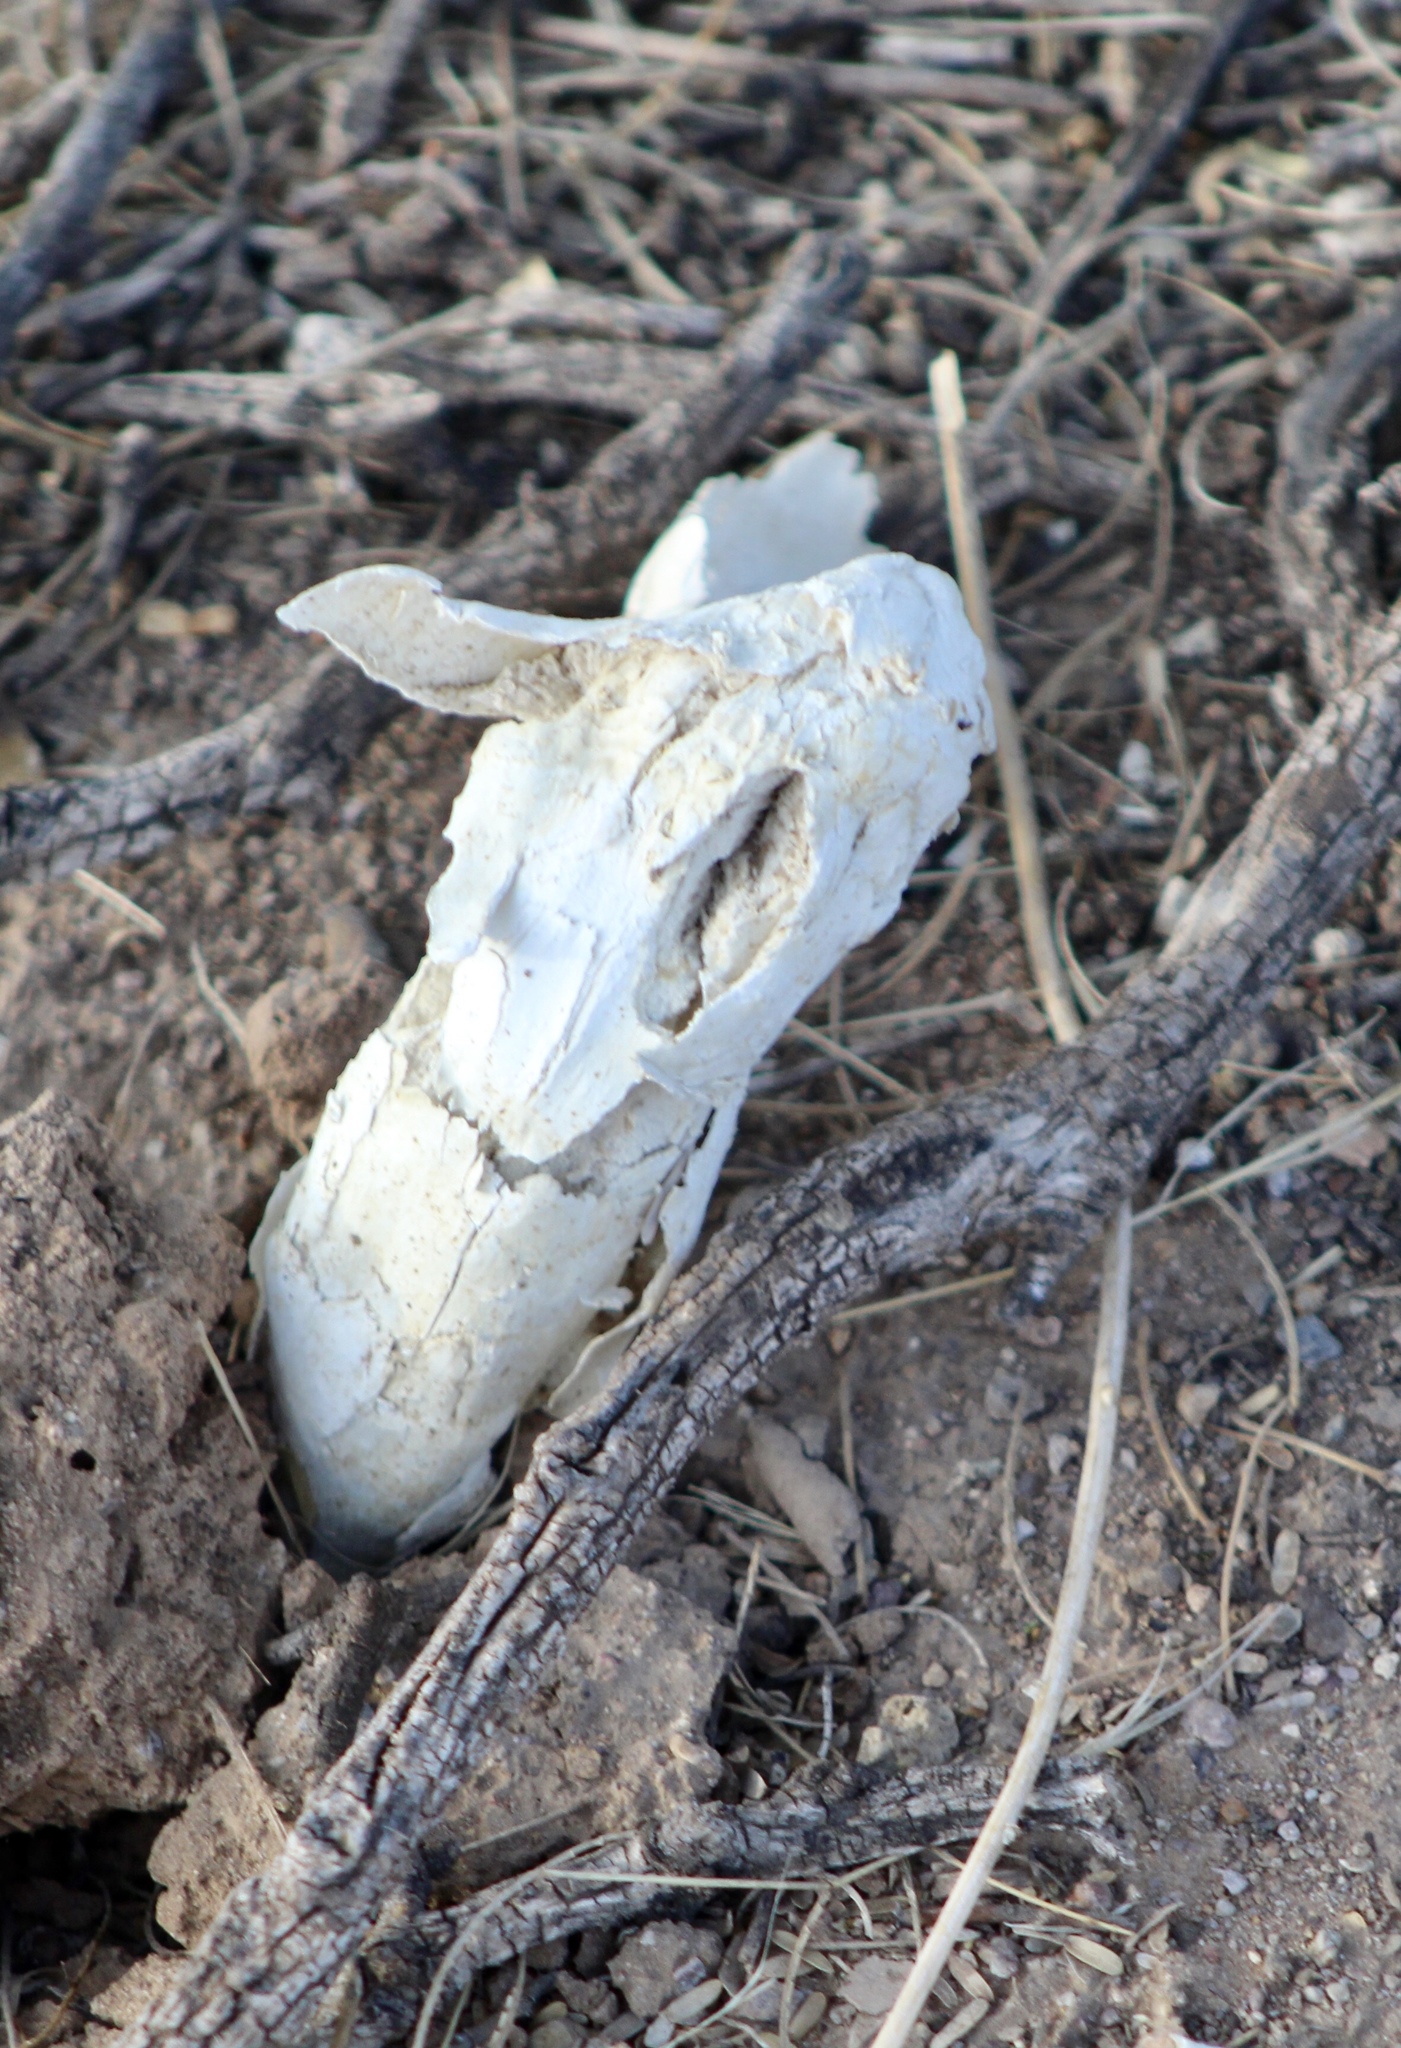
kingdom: Fungi
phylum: Basidiomycota
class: Agaricomycetes
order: Agaricales
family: Agaricaceae
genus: Podaxis
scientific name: Podaxis pistillaris
